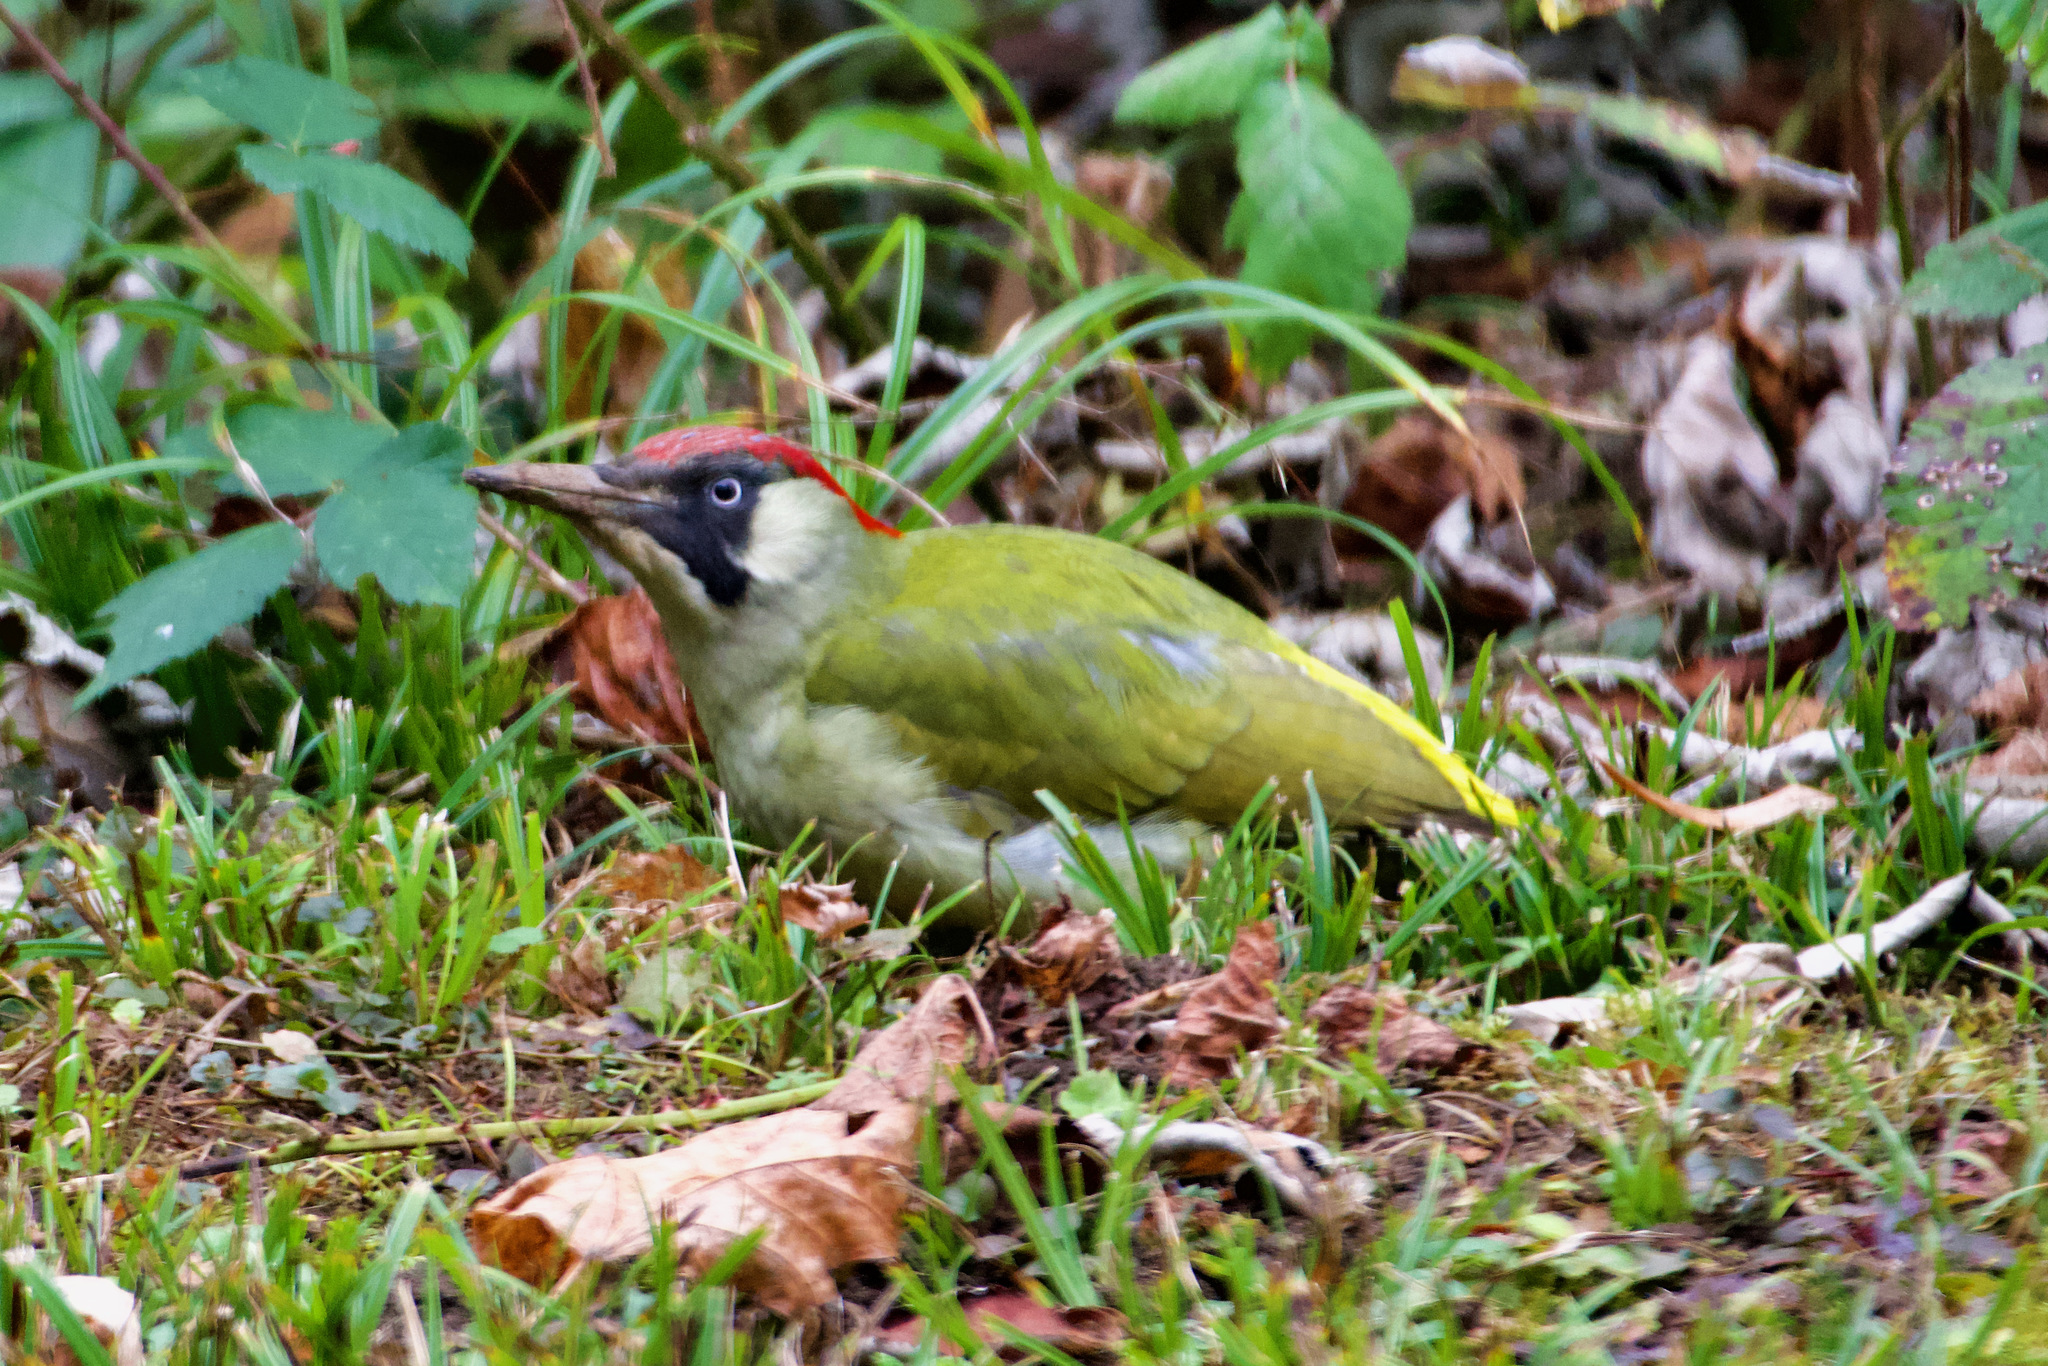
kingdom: Animalia
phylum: Chordata
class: Aves
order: Piciformes
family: Picidae
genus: Picus
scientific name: Picus viridis
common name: European green woodpecker
